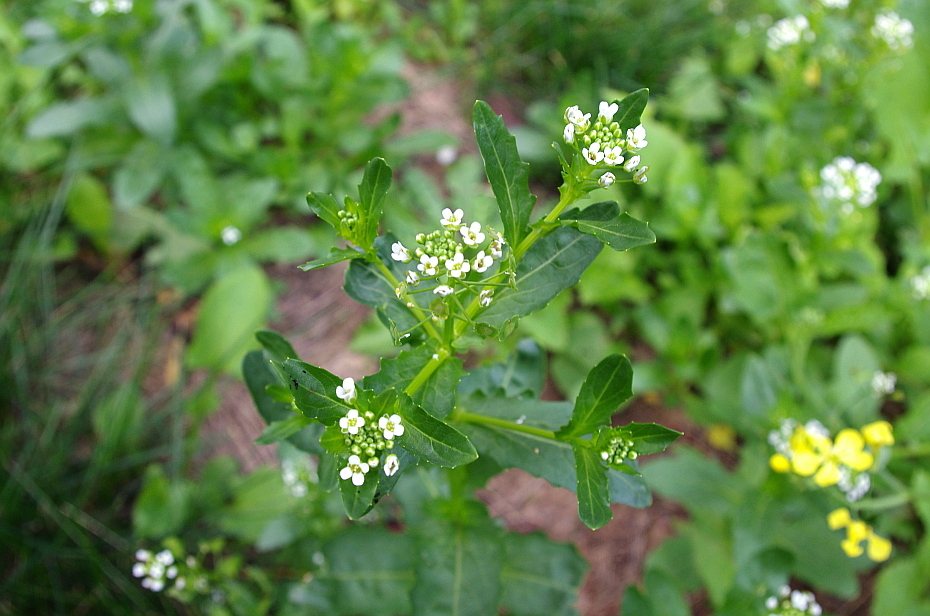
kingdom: Plantae
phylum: Tracheophyta
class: Magnoliopsida
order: Brassicales
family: Brassicaceae
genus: Thlaspi
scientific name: Thlaspi arvense
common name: Field pennycress
